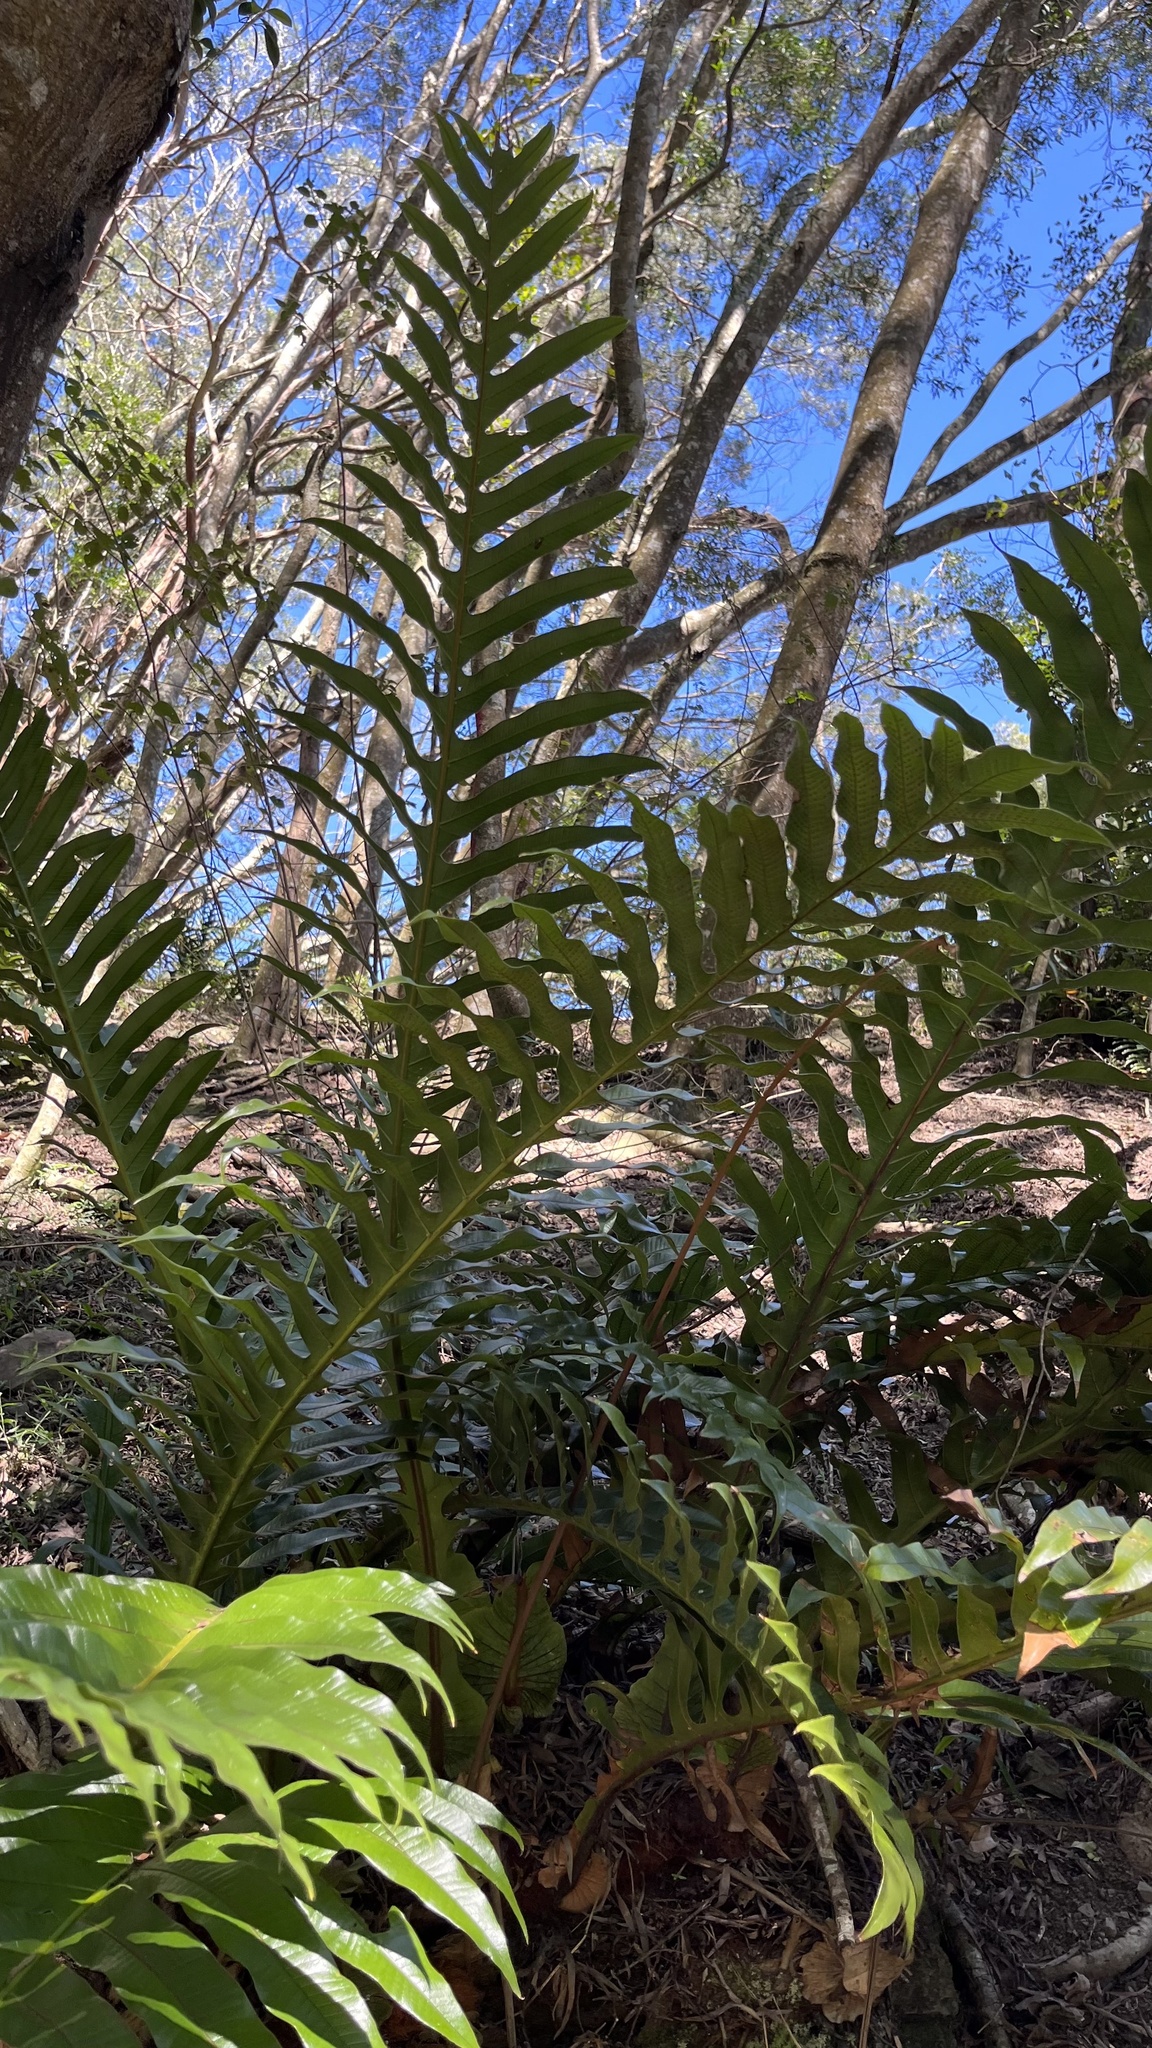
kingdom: Plantae
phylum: Tracheophyta
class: Polypodiopsida
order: Polypodiales
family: Polypodiaceae
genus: Drynaria
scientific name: Drynaria coronans
